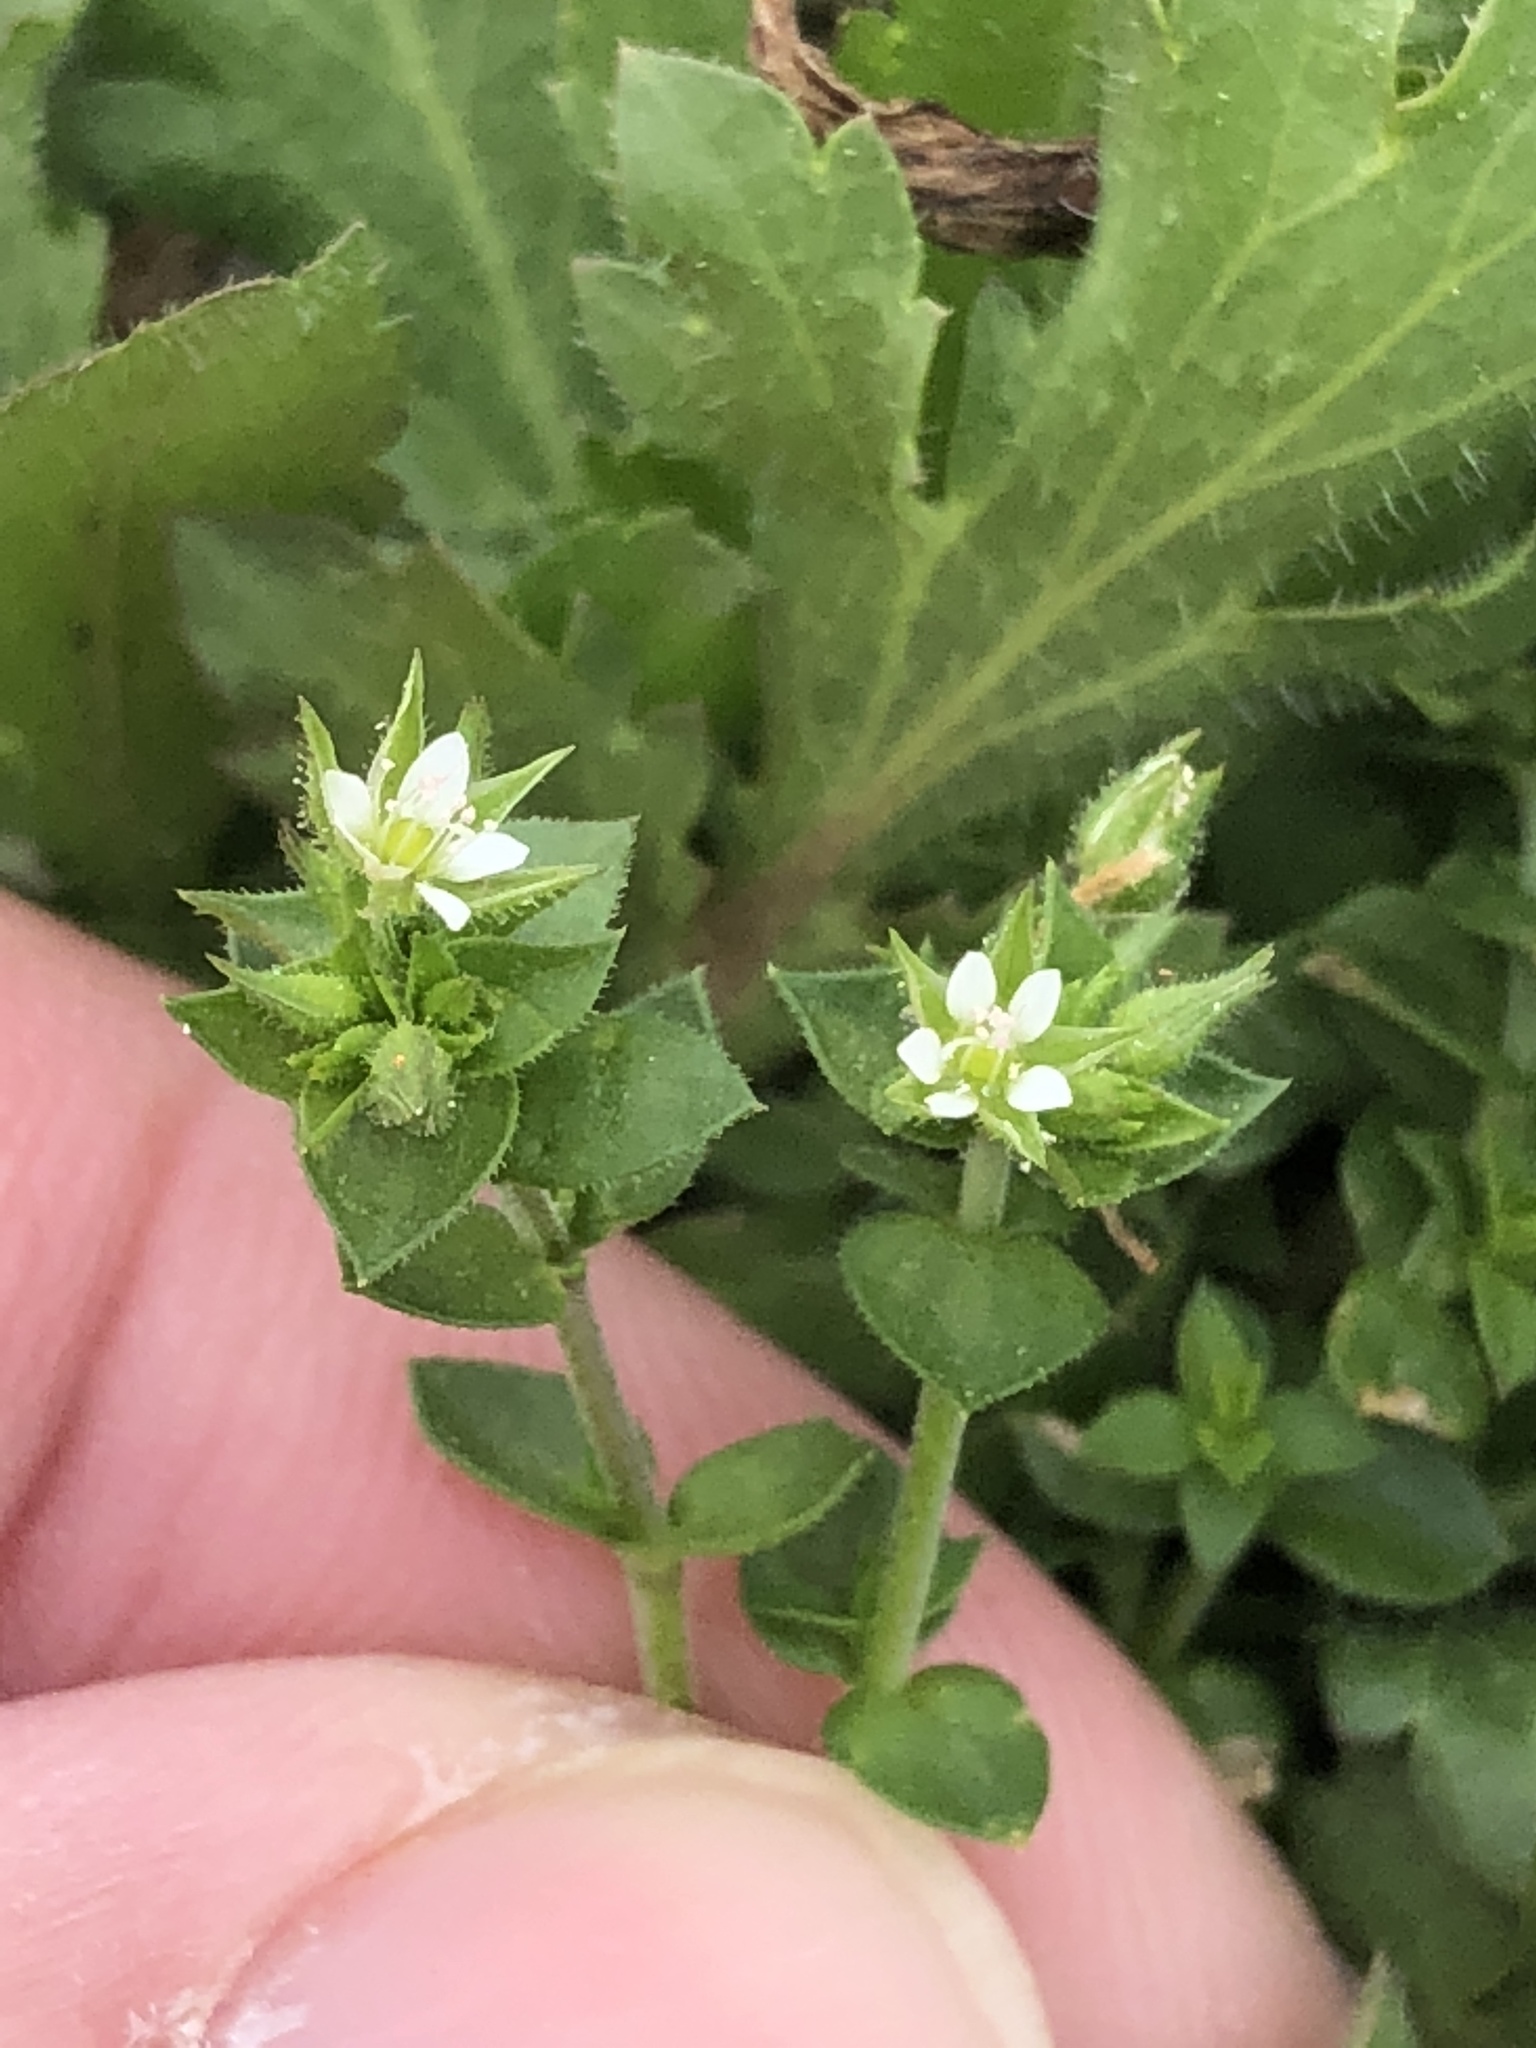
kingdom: Plantae
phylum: Tracheophyta
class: Magnoliopsida
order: Caryophyllales
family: Caryophyllaceae
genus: Arenaria
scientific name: Arenaria serpyllifolia
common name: Thyme-leaved sandwort
